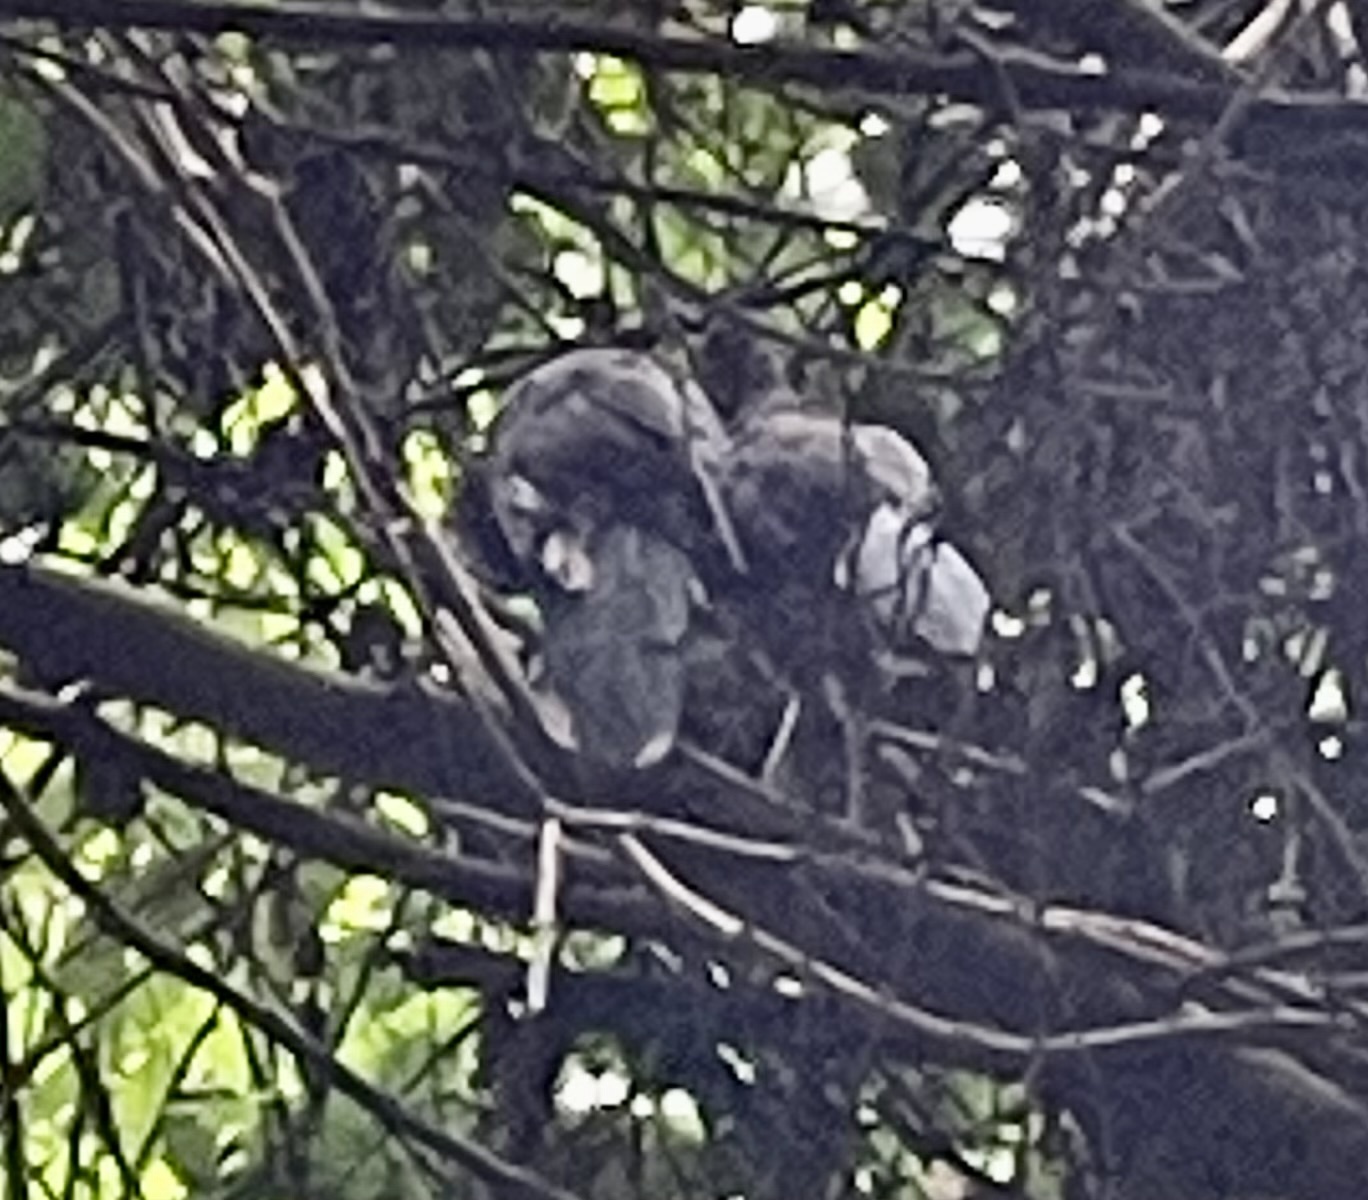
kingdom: Animalia
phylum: Chordata
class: Aves
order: Galliformes
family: Cracidae
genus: Ortalis
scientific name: Ortalis cinereiceps
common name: Grey-headed chachalaca
